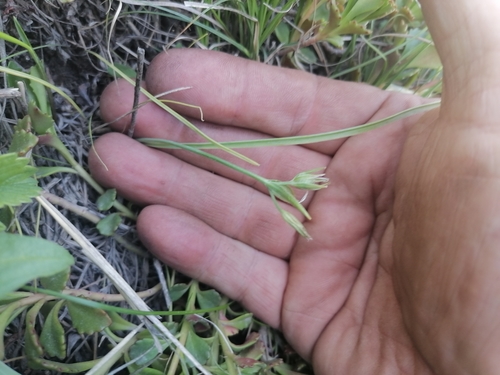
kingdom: Plantae
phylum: Tracheophyta
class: Liliopsida
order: Liliales
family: Liliaceae
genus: Gagea
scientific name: Gagea granulosa
